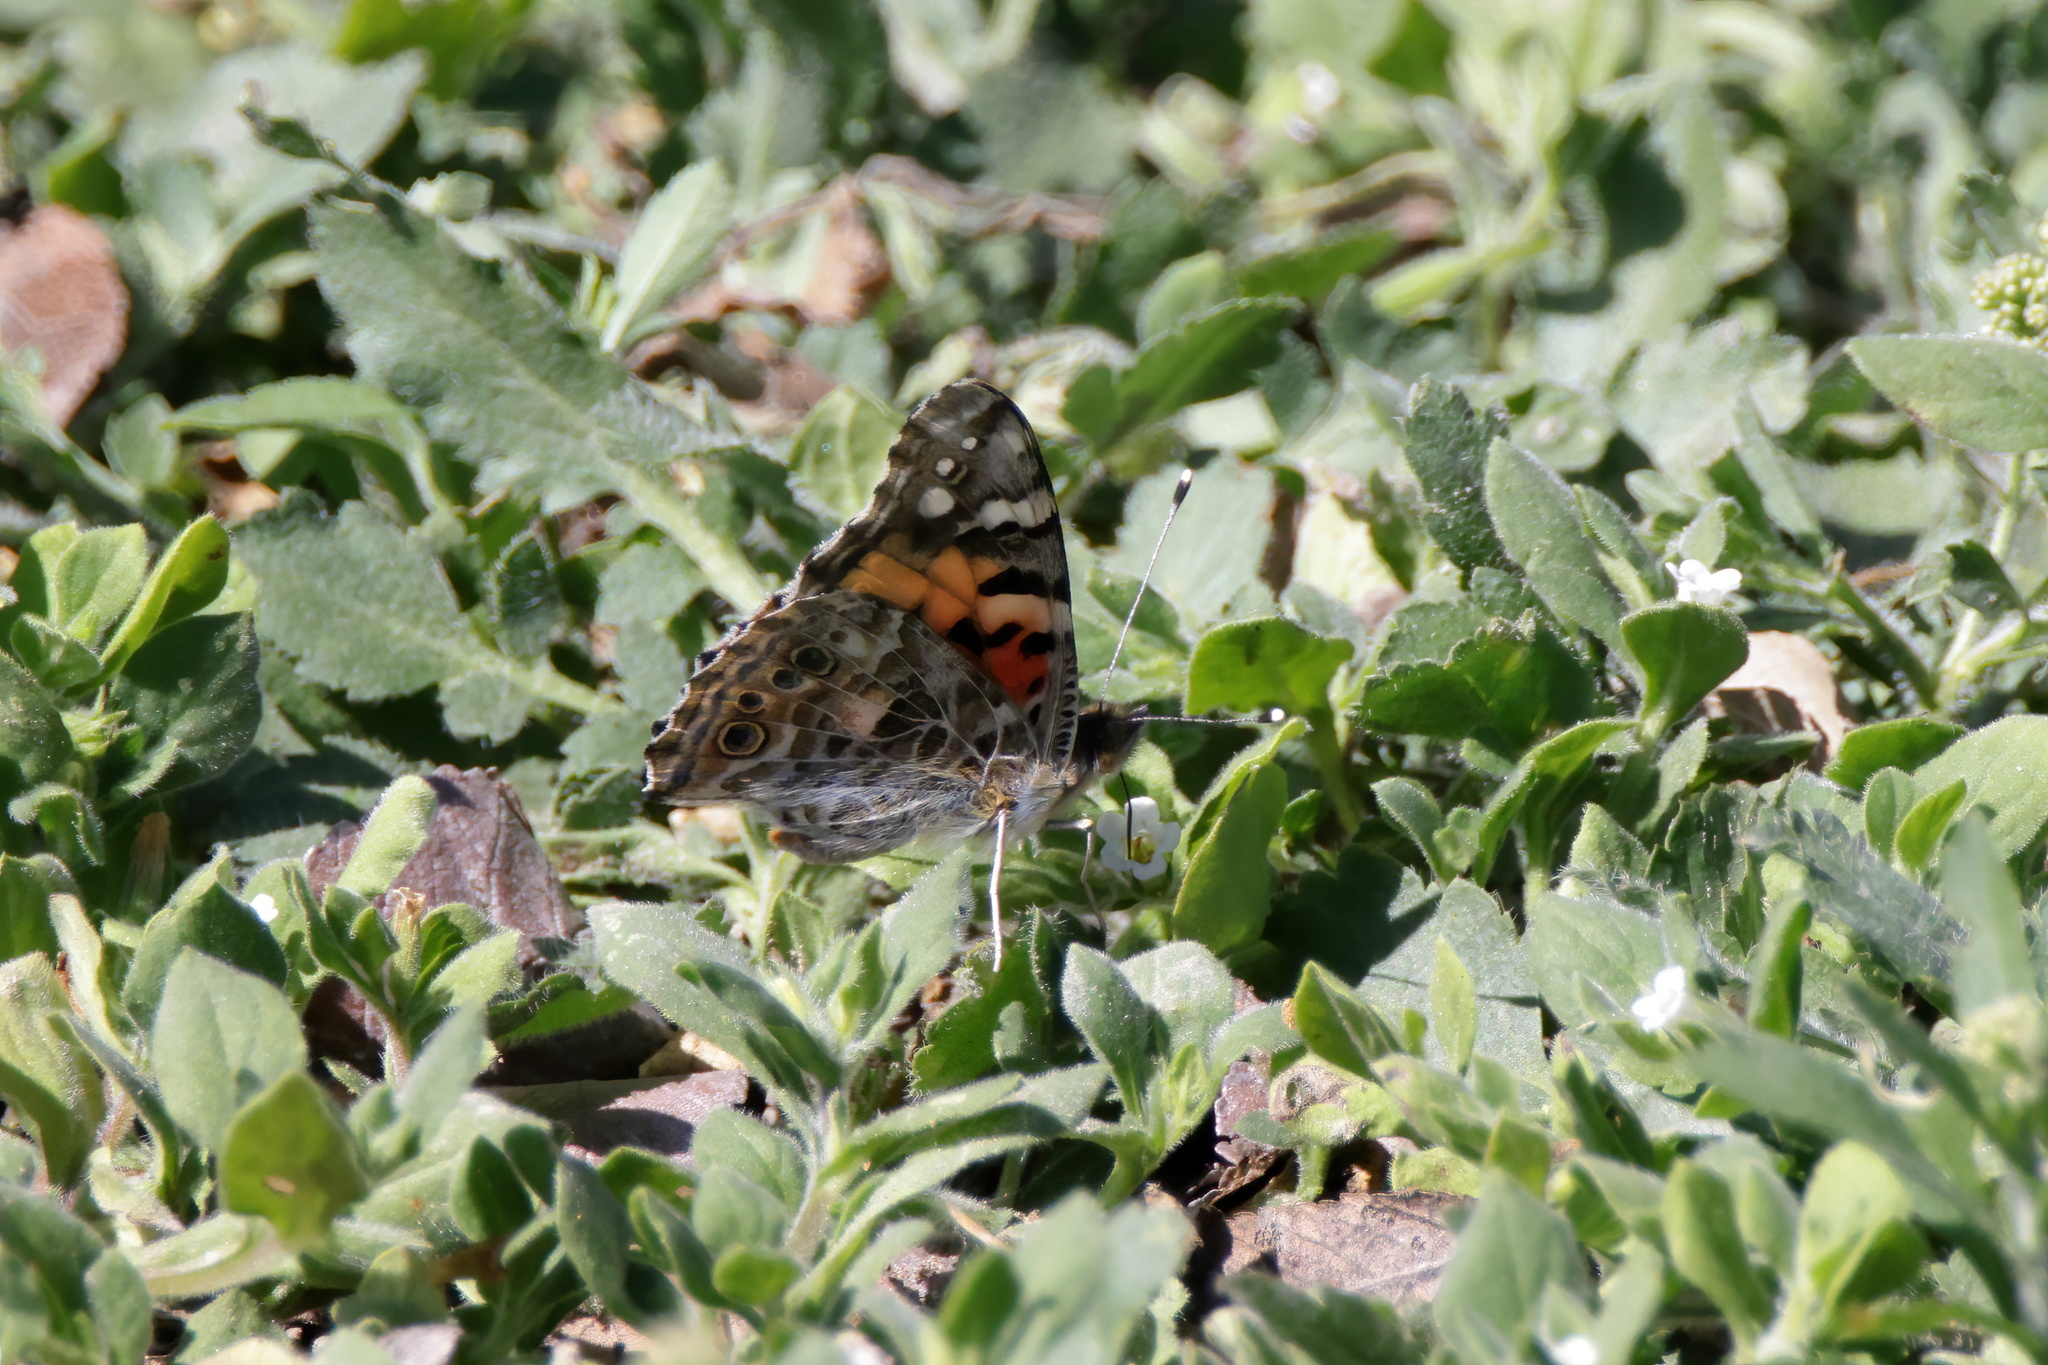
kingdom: Animalia
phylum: Arthropoda
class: Insecta
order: Lepidoptera
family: Nymphalidae
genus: Vanessa
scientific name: Vanessa cardui
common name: Painted lady
